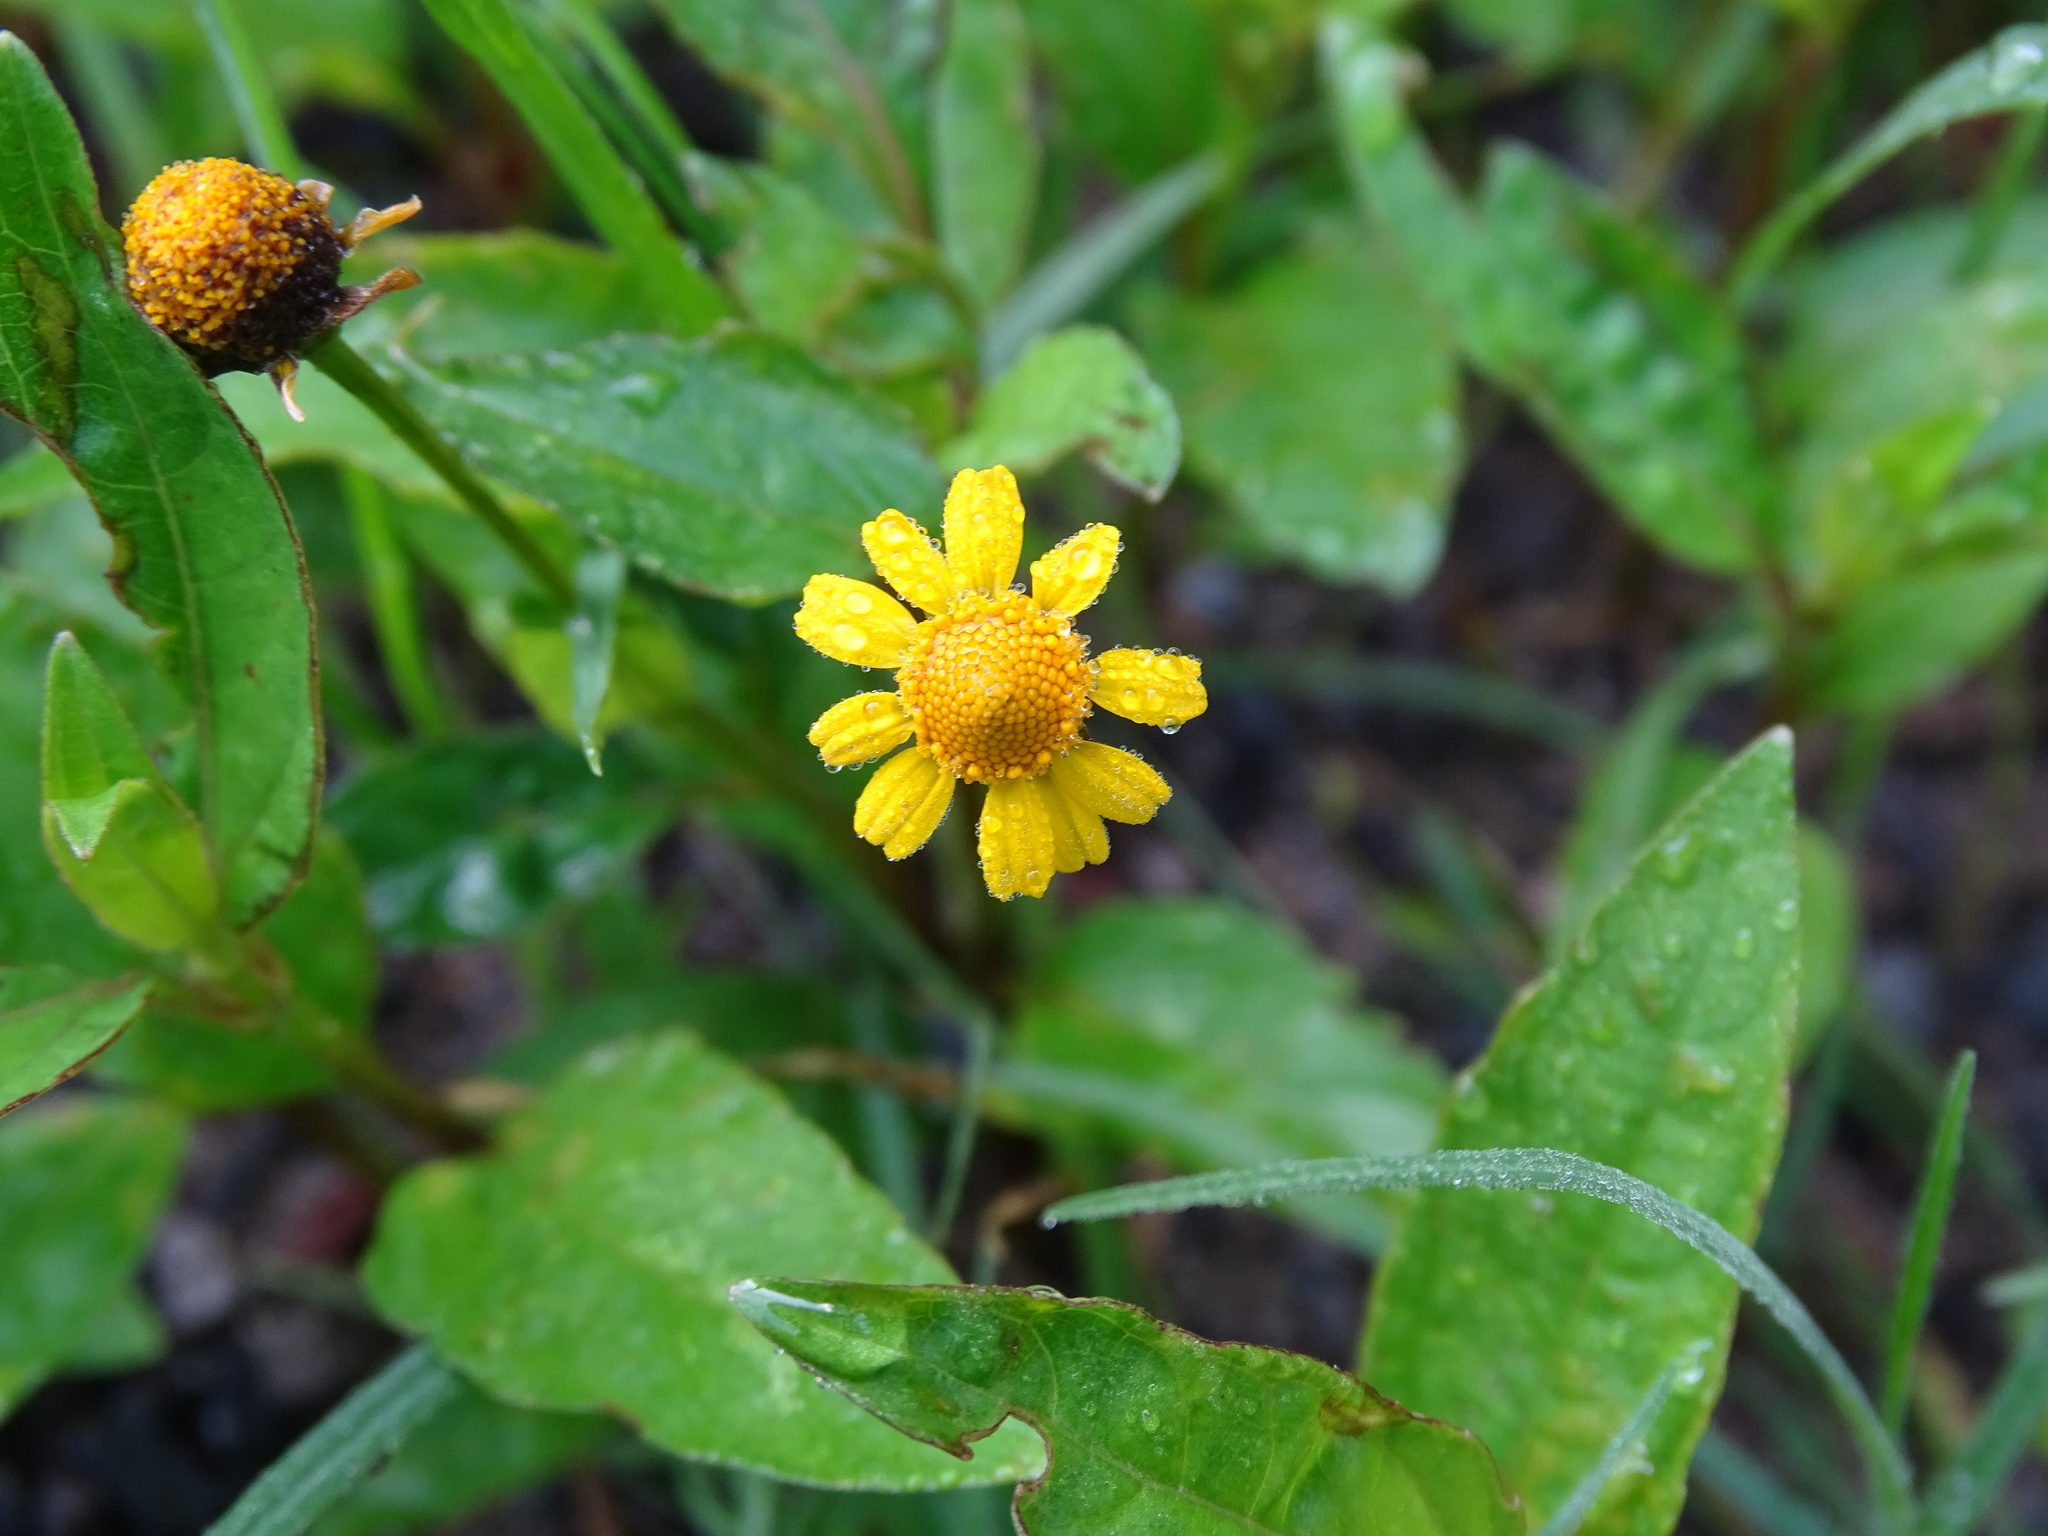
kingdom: Plantae
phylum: Tracheophyta
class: Magnoliopsida
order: Asterales
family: Asteraceae
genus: Acmella
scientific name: Acmella repens
